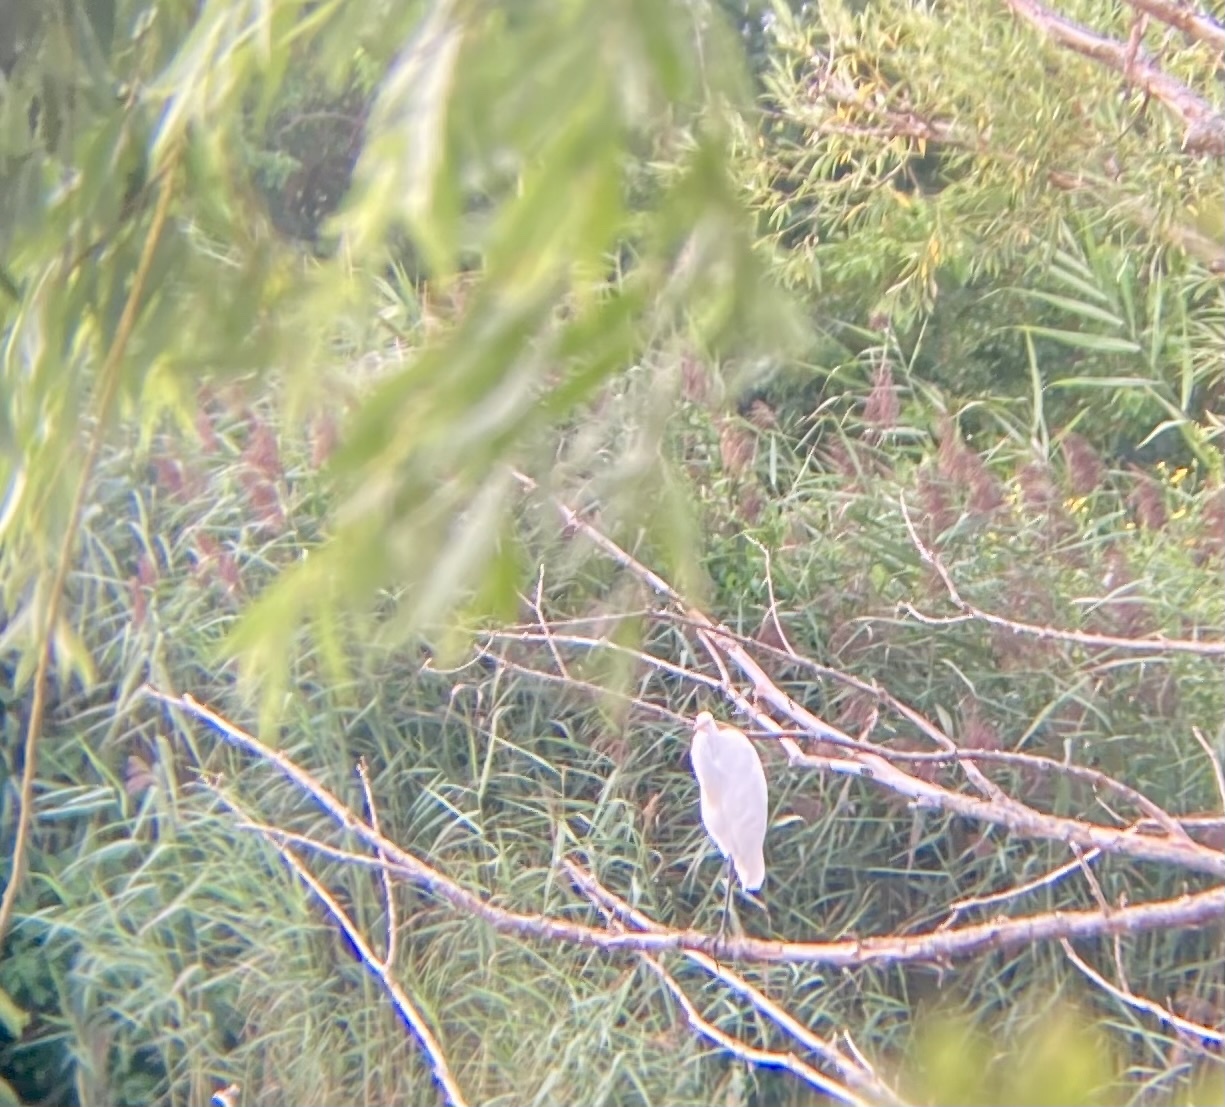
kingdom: Animalia
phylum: Chordata
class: Aves
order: Pelecaniformes
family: Ardeidae
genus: Ardea
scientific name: Ardea alba
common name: Great egret
